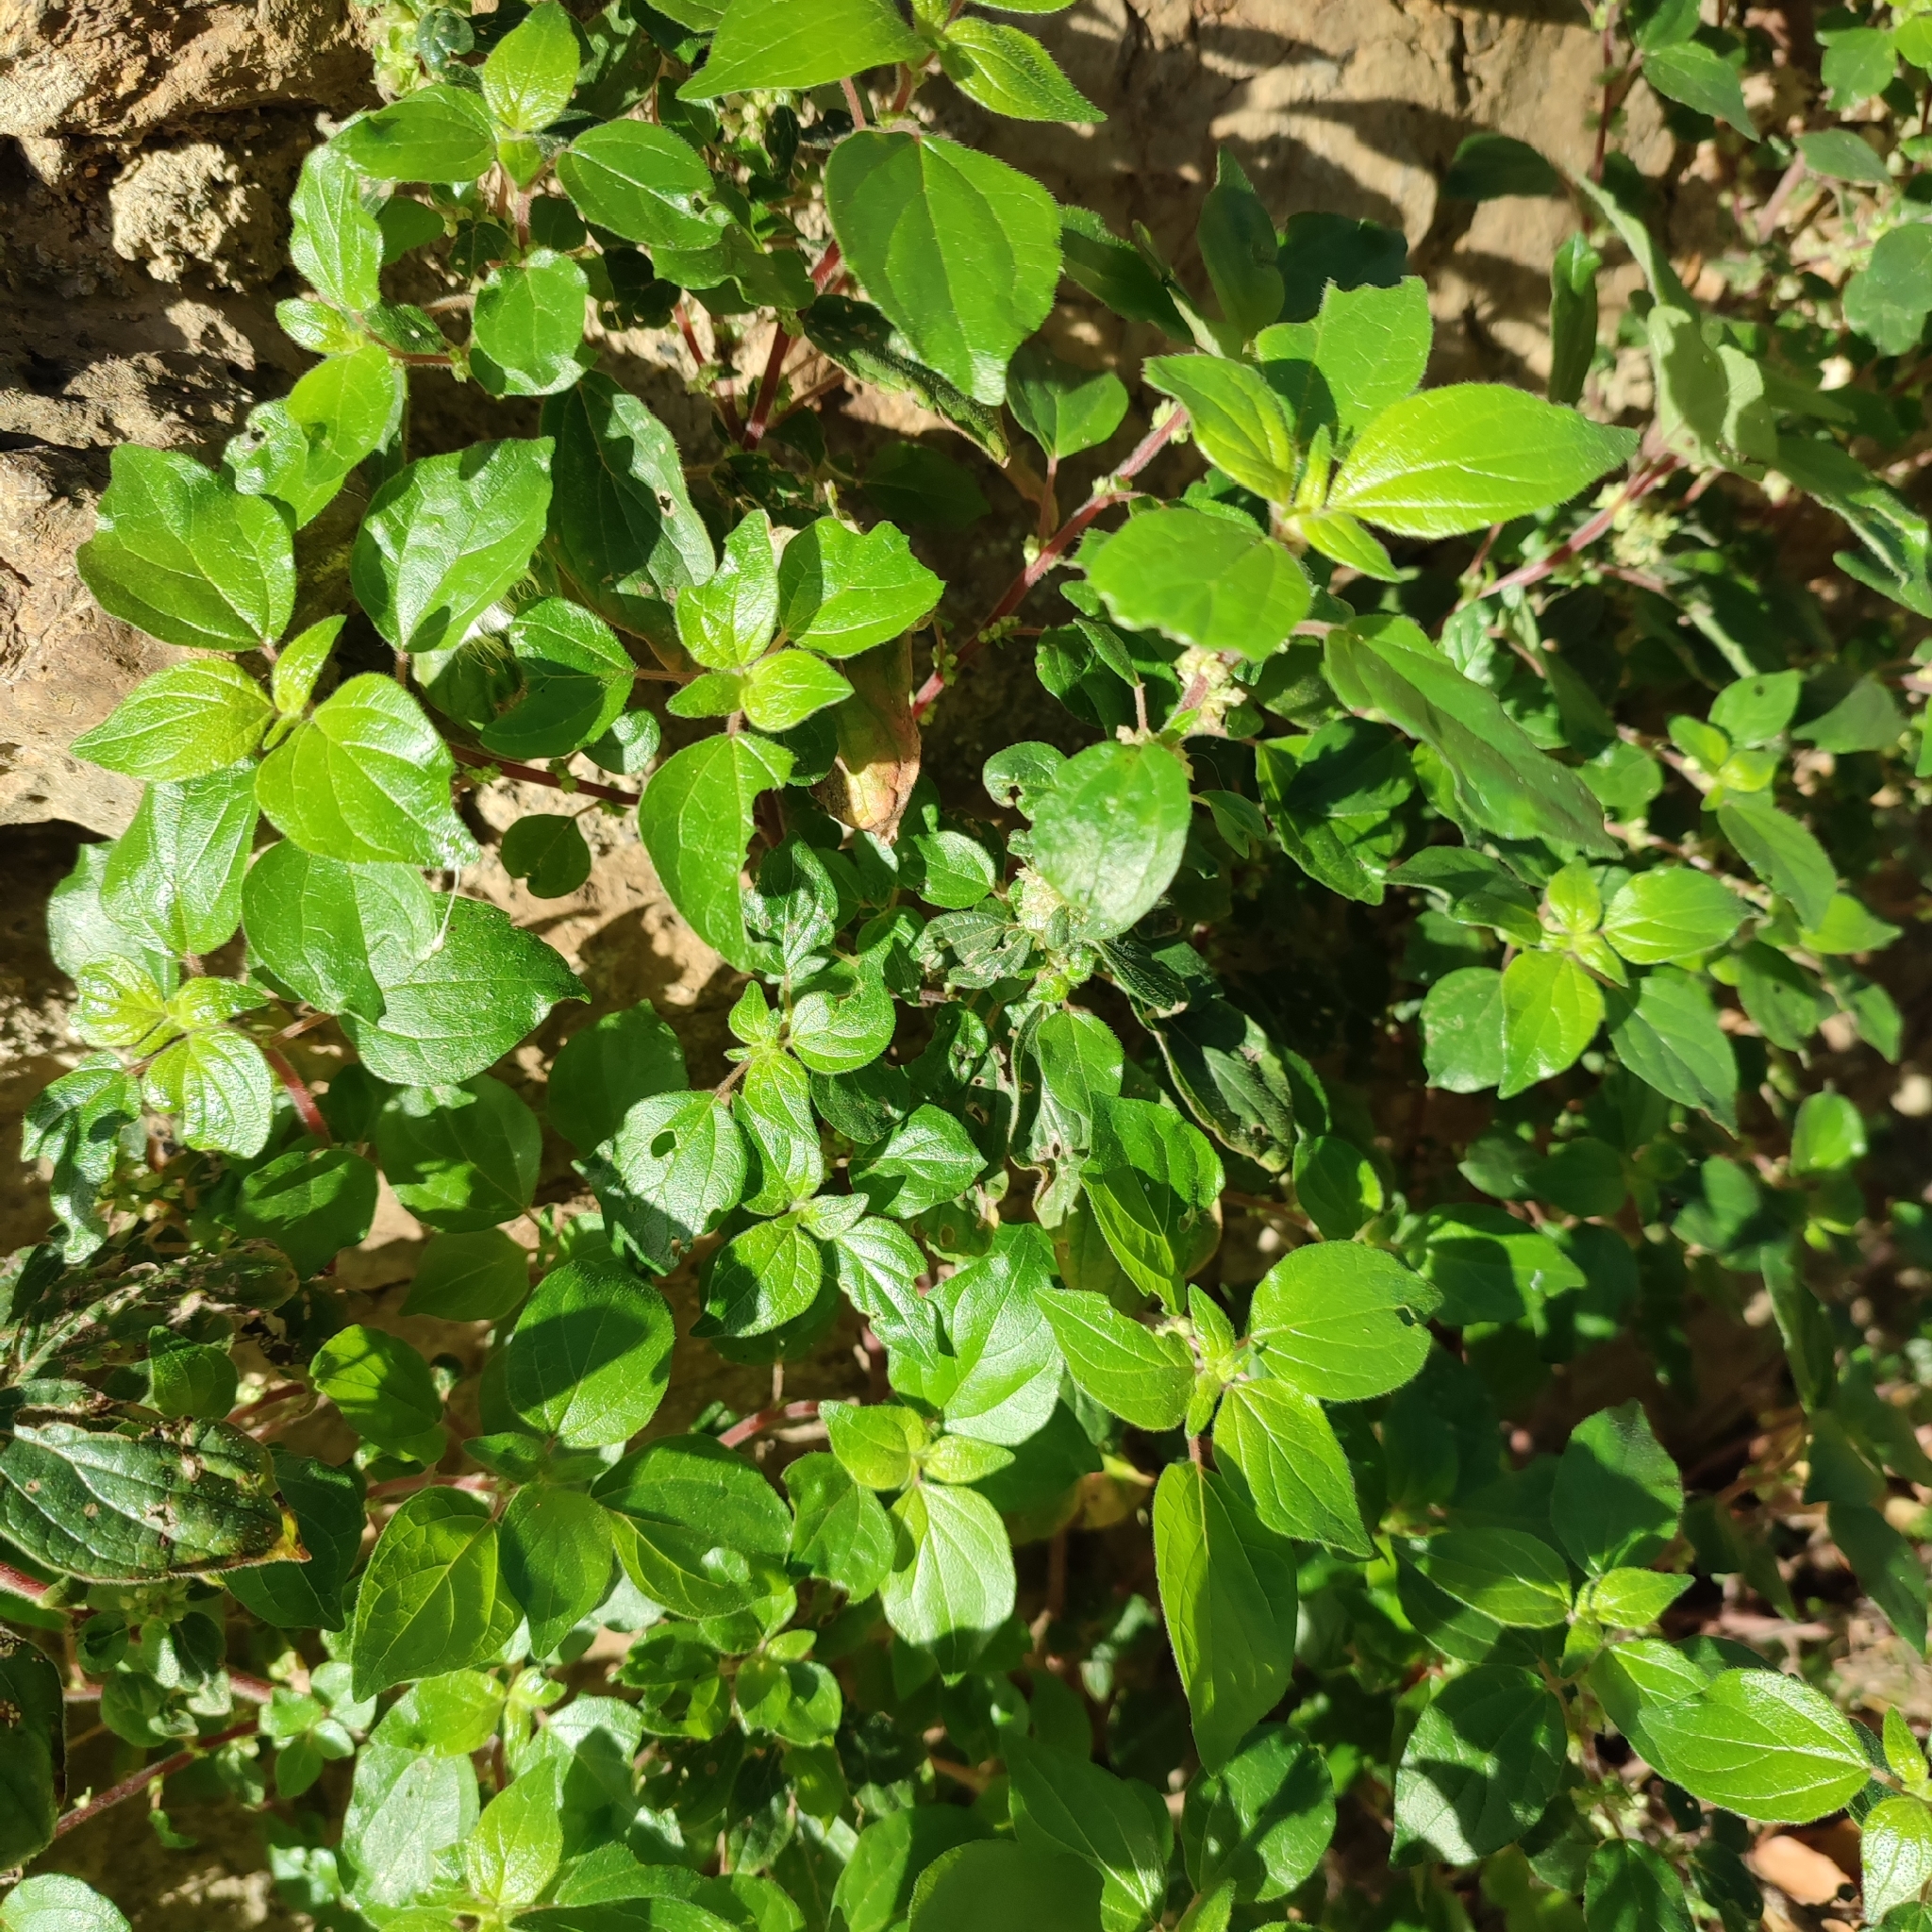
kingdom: Plantae
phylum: Tracheophyta
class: Magnoliopsida
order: Rosales
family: Urticaceae
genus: Parietaria
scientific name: Parietaria judaica
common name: Pellitory-of-the-wall
